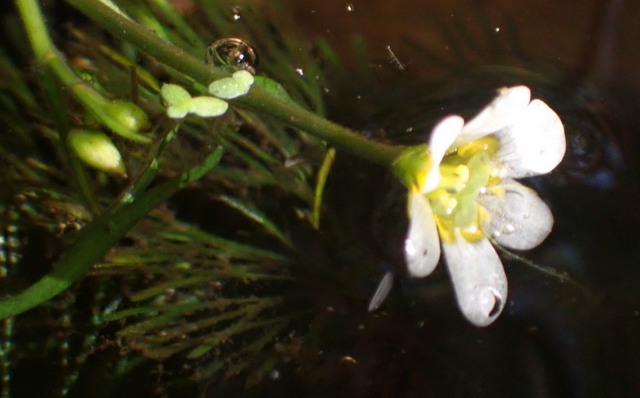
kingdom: Plantae
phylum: Tracheophyta
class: Magnoliopsida
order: Nymphaeales
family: Cabombaceae
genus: Cabomba
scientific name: Cabomba caroliniana
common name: Fanwort
